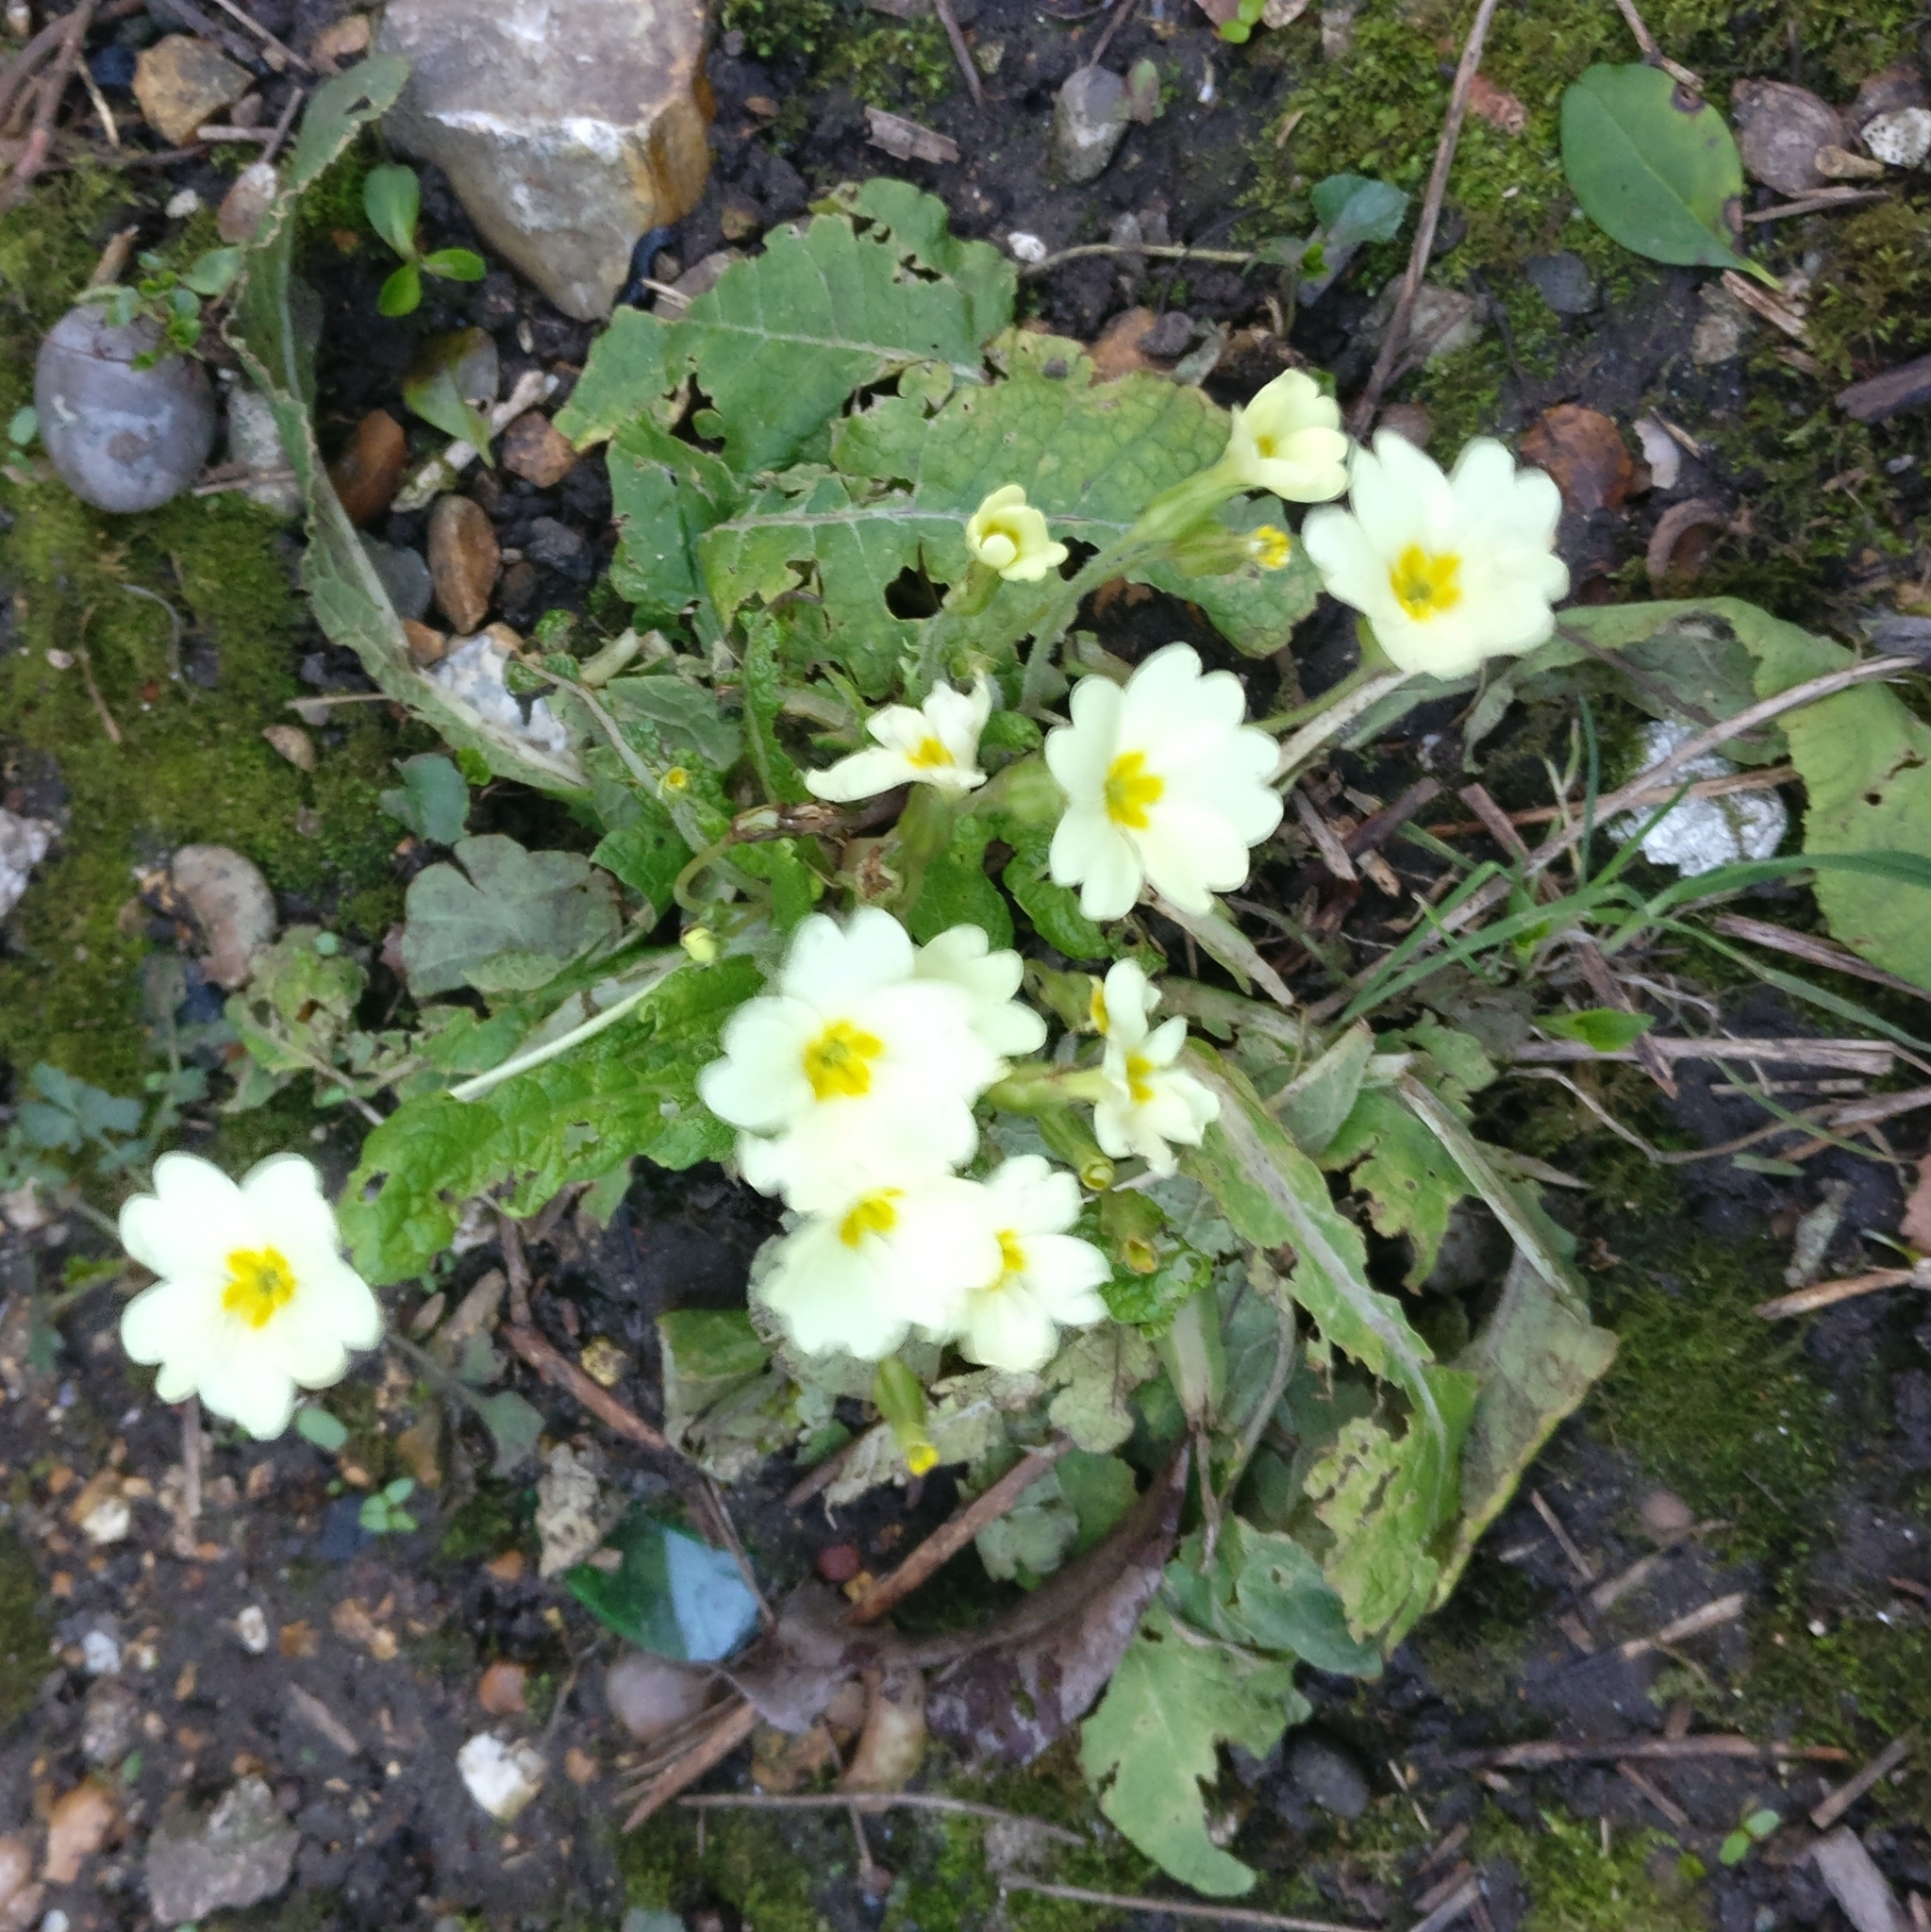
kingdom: Plantae
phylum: Tracheophyta
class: Magnoliopsida
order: Ericales
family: Primulaceae
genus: Primula
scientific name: Primula vulgaris
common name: Primrose
